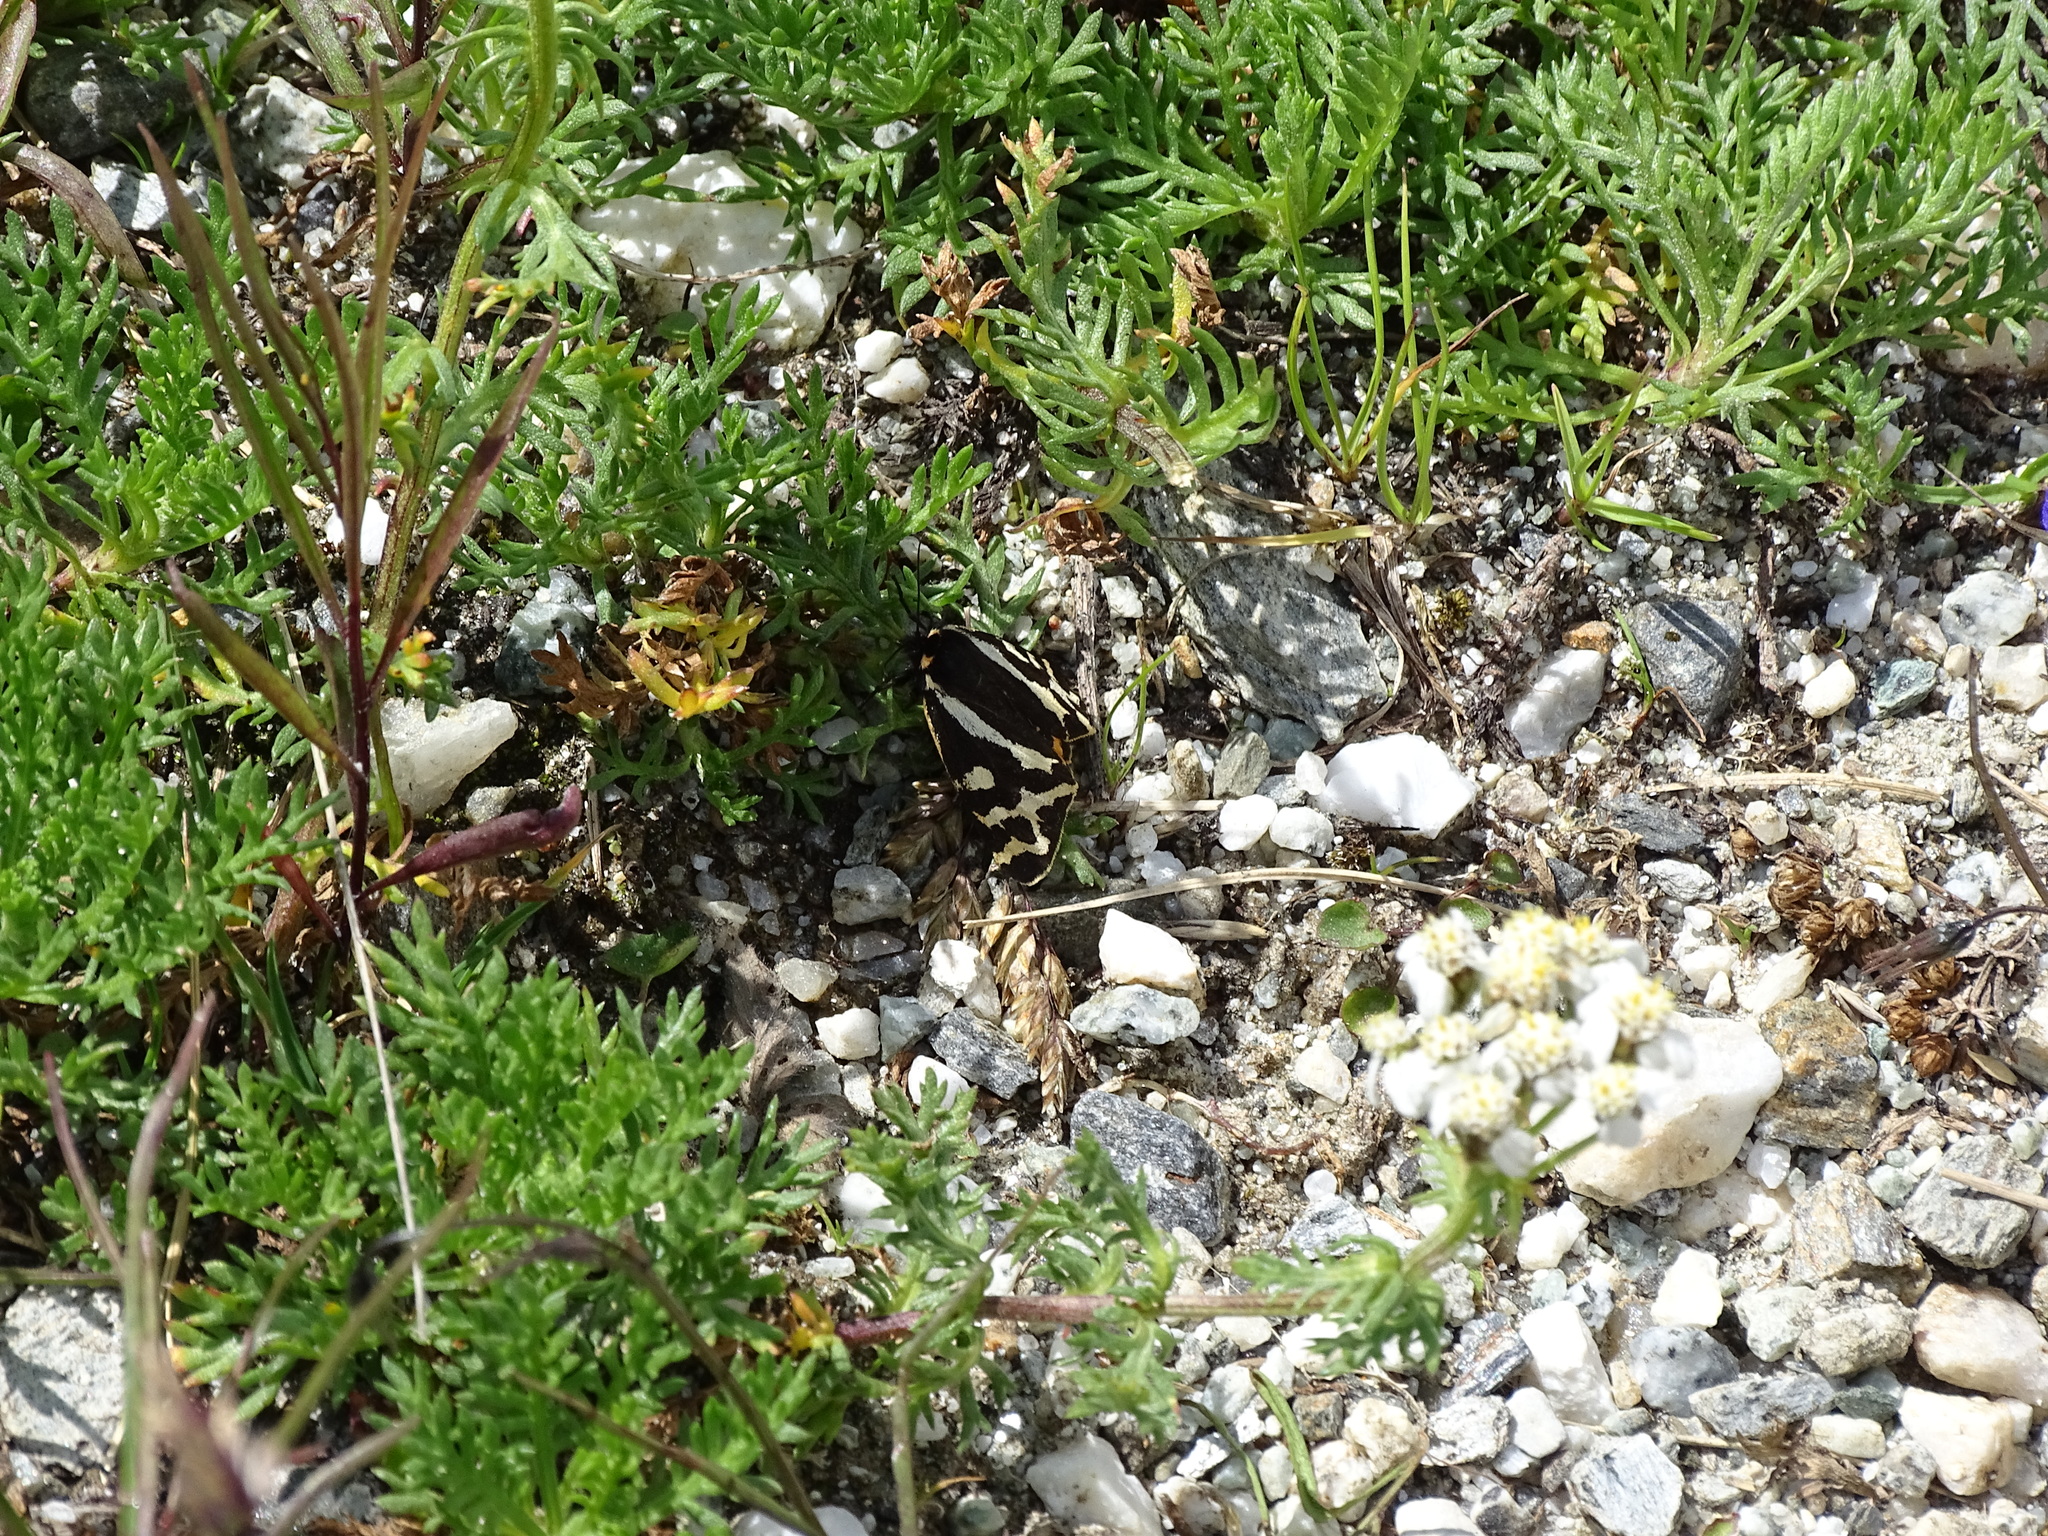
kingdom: Animalia
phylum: Arthropoda
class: Insecta
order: Lepidoptera
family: Erebidae
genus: Parasemia
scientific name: Parasemia plantaginis
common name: Wood tiger
